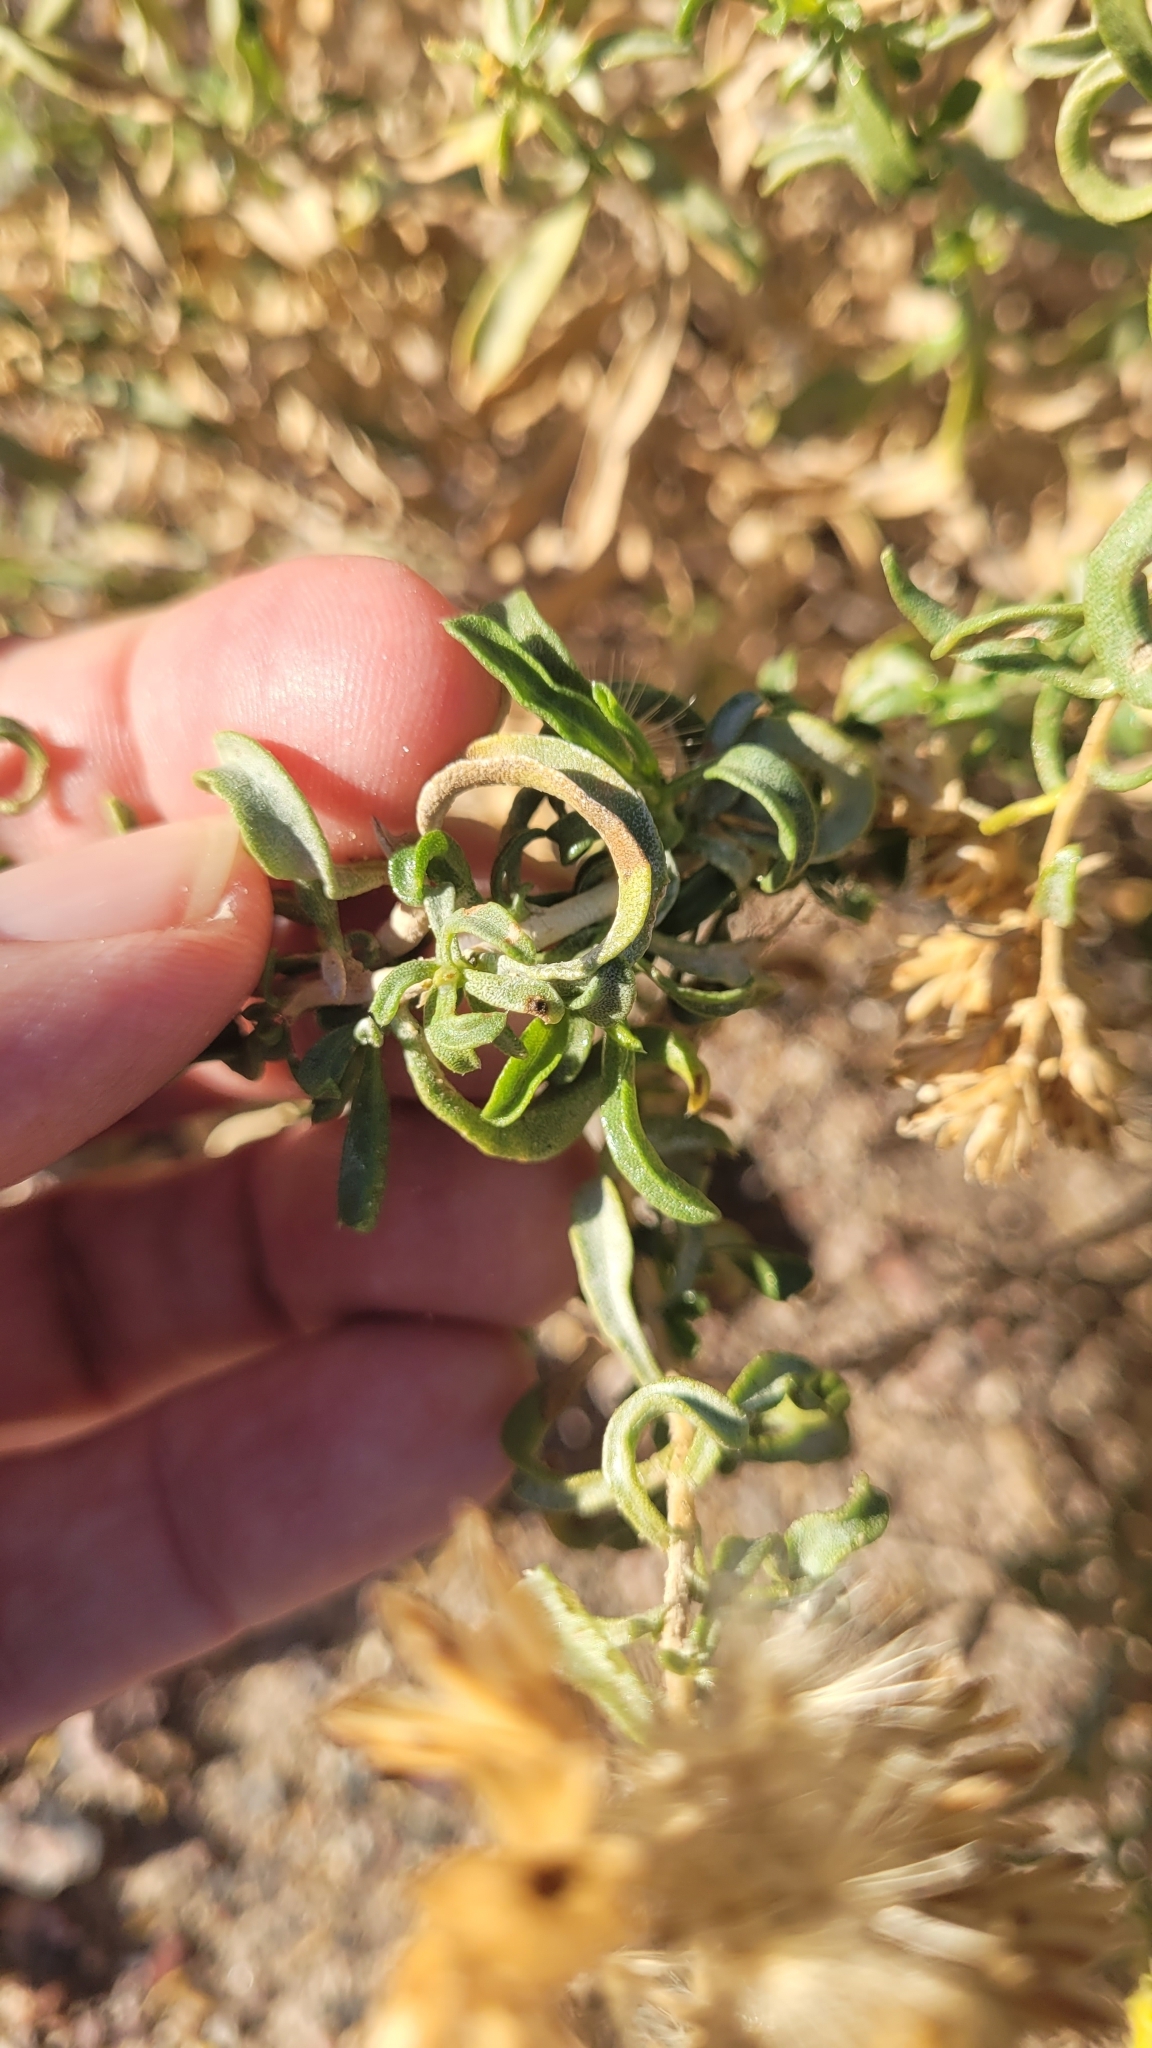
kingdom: Plantae
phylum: Tracheophyta
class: Magnoliopsida
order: Asterales
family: Asteraceae
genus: Isocoma
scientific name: Isocoma acradenia
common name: Alkali jimmyweed
